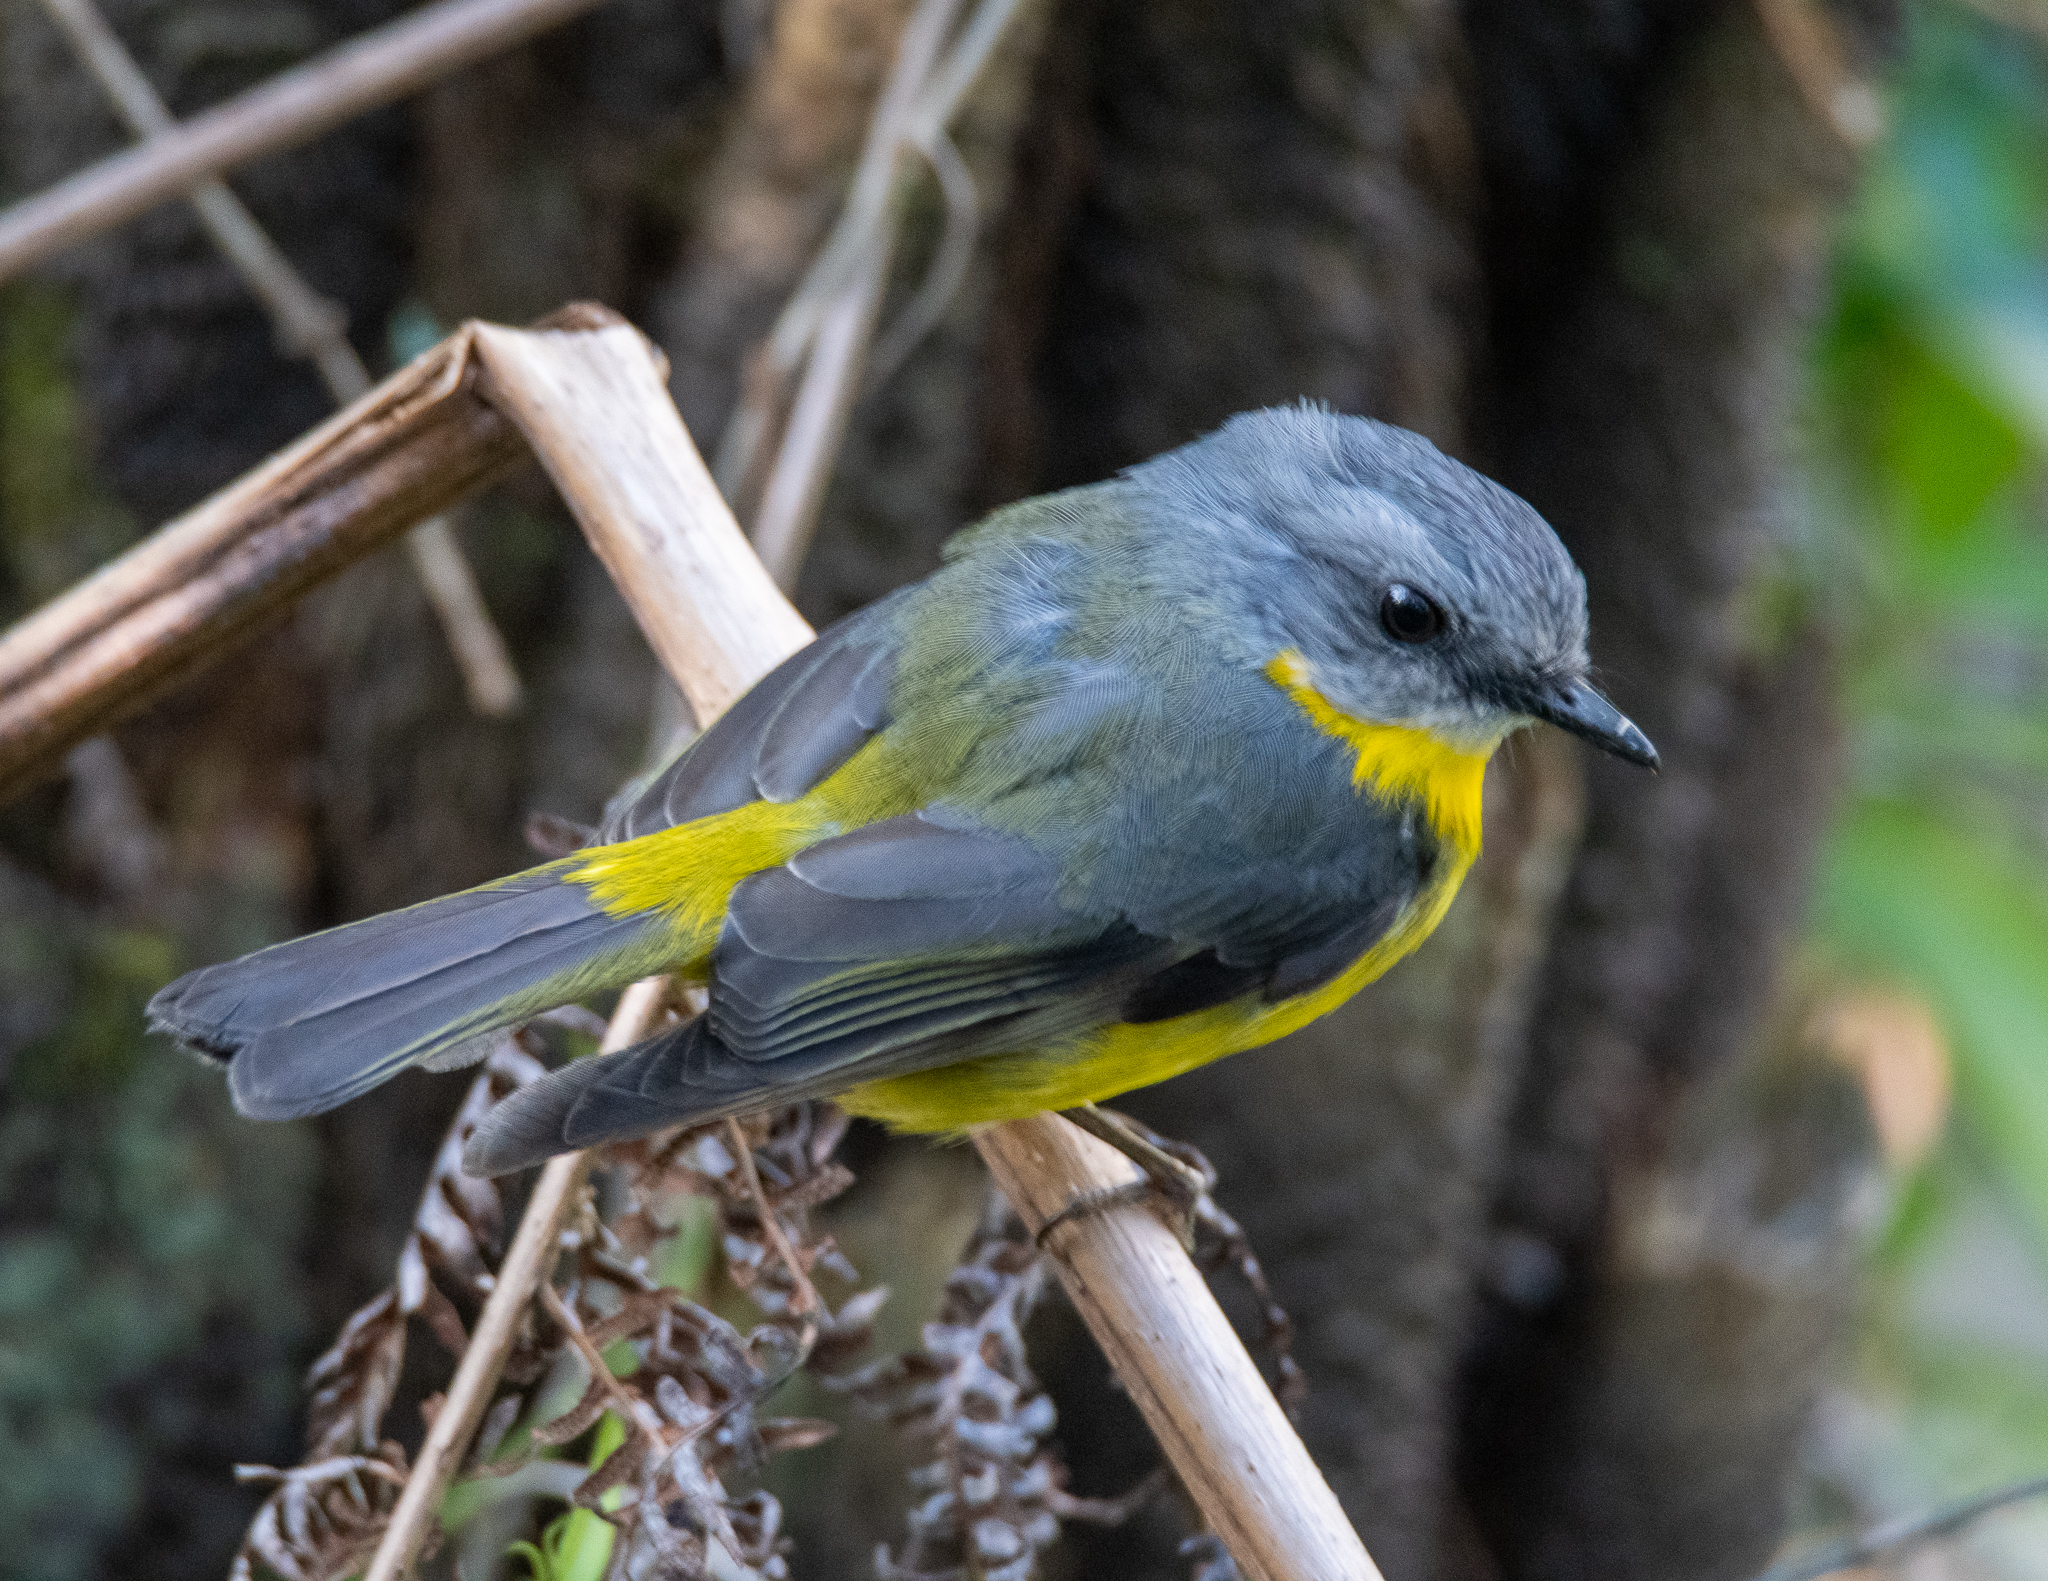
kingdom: Animalia
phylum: Chordata
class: Aves
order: Passeriformes
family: Petroicidae
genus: Eopsaltria
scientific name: Eopsaltria australis
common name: Eastern yellow robin
